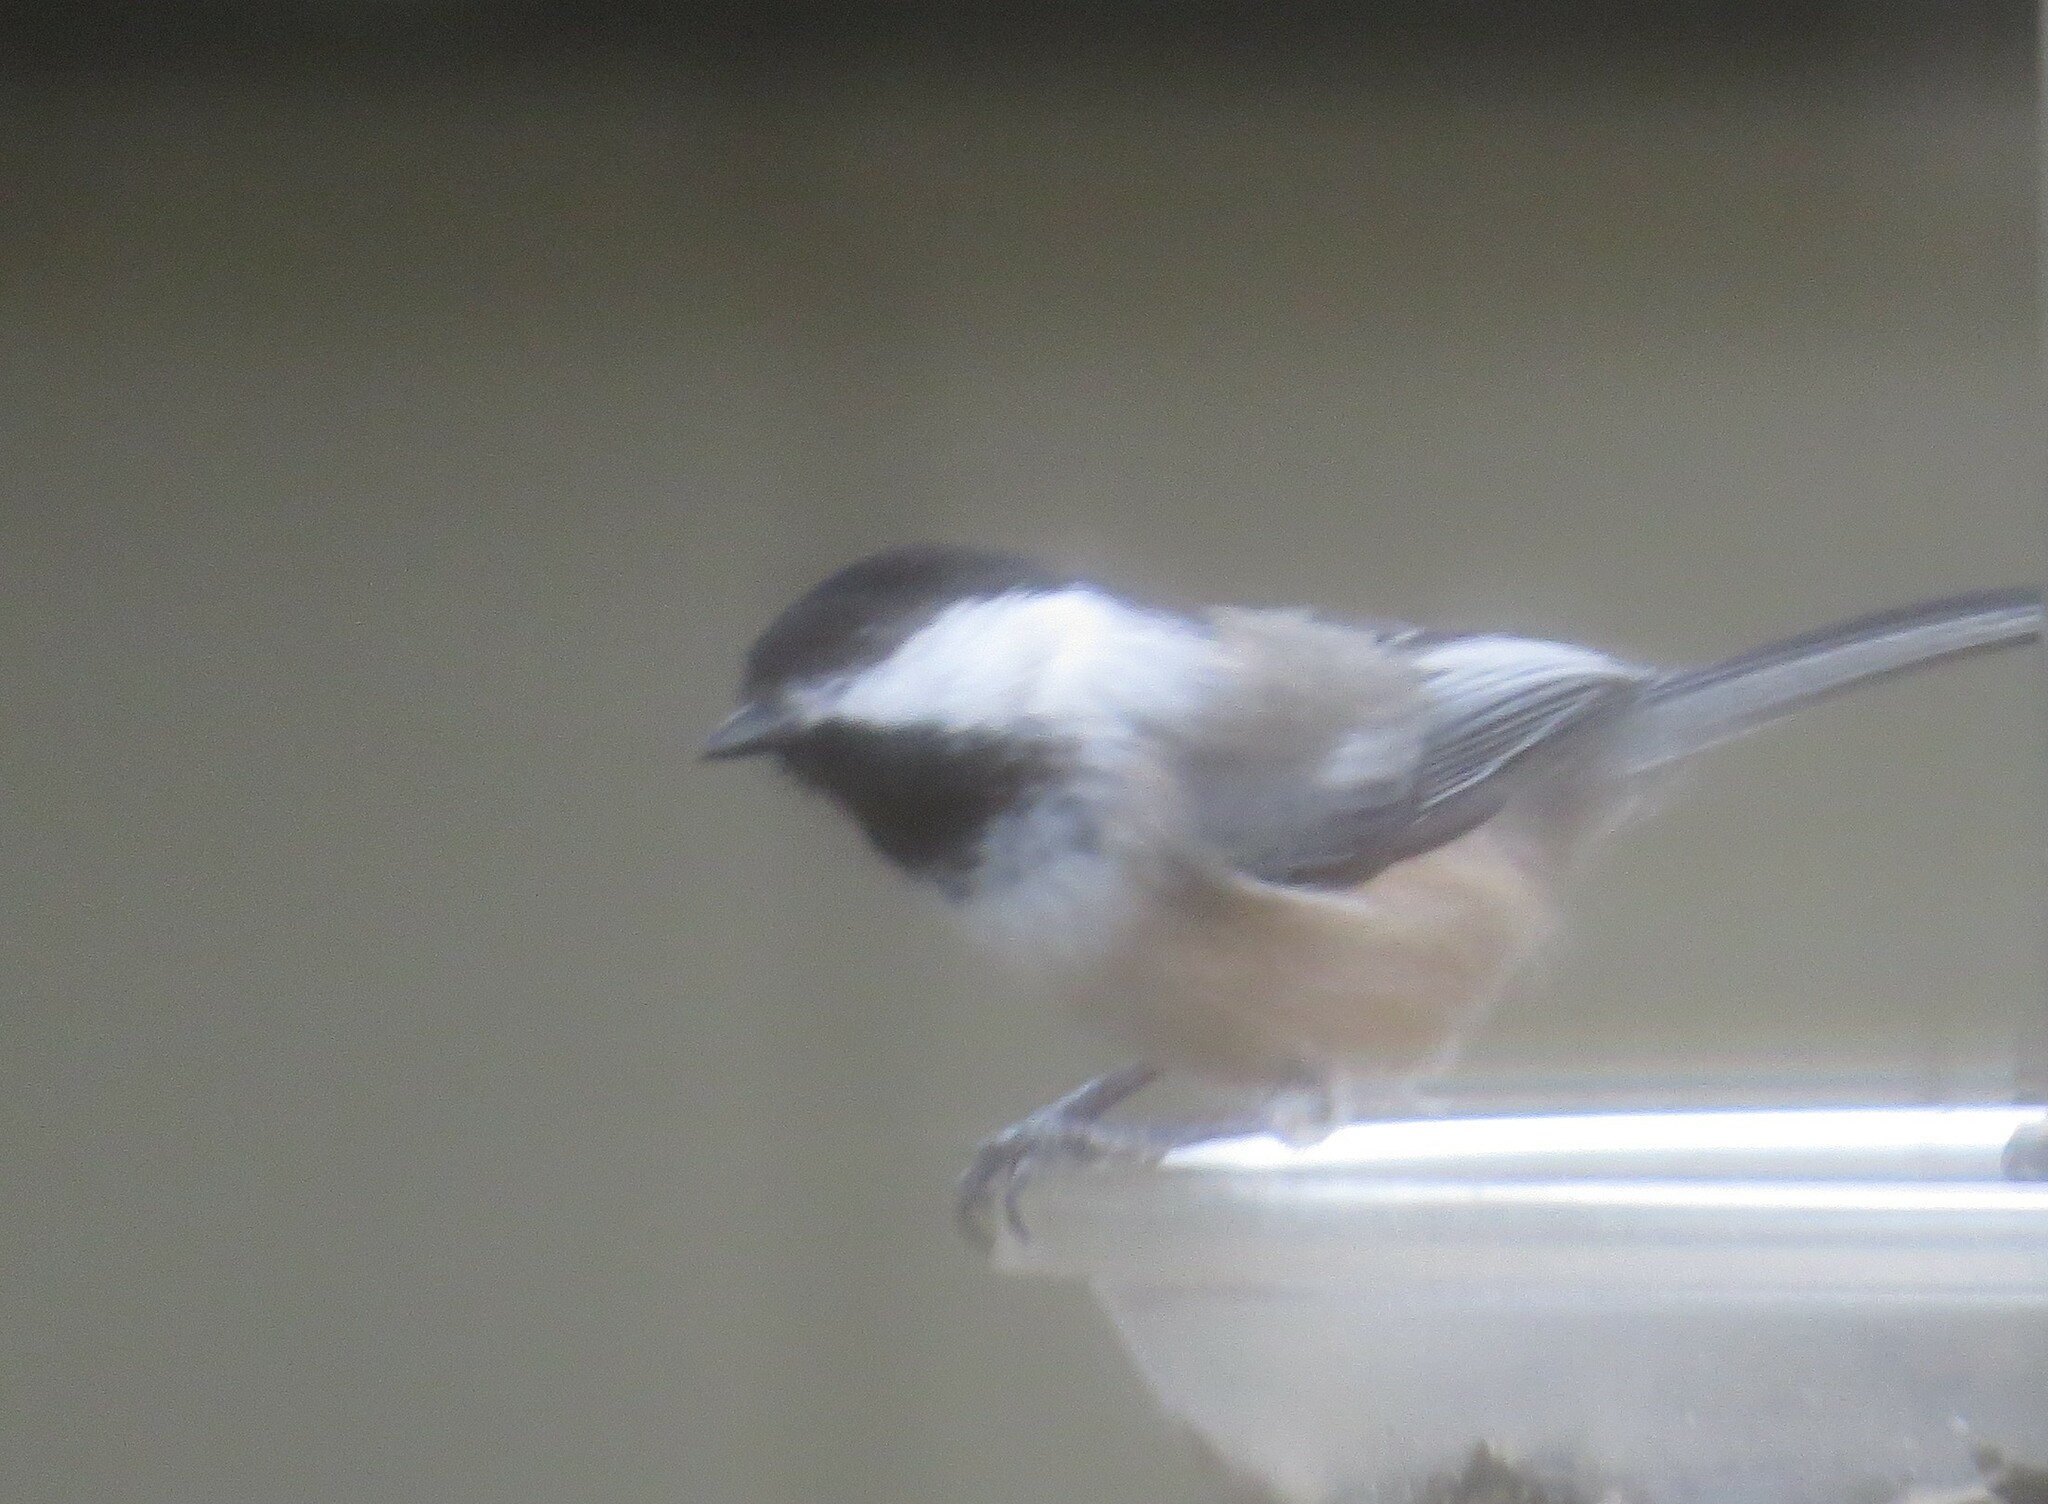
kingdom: Animalia
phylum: Chordata
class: Aves
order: Passeriformes
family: Paridae
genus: Poecile
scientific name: Poecile atricapillus
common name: Black-capped chickadee
